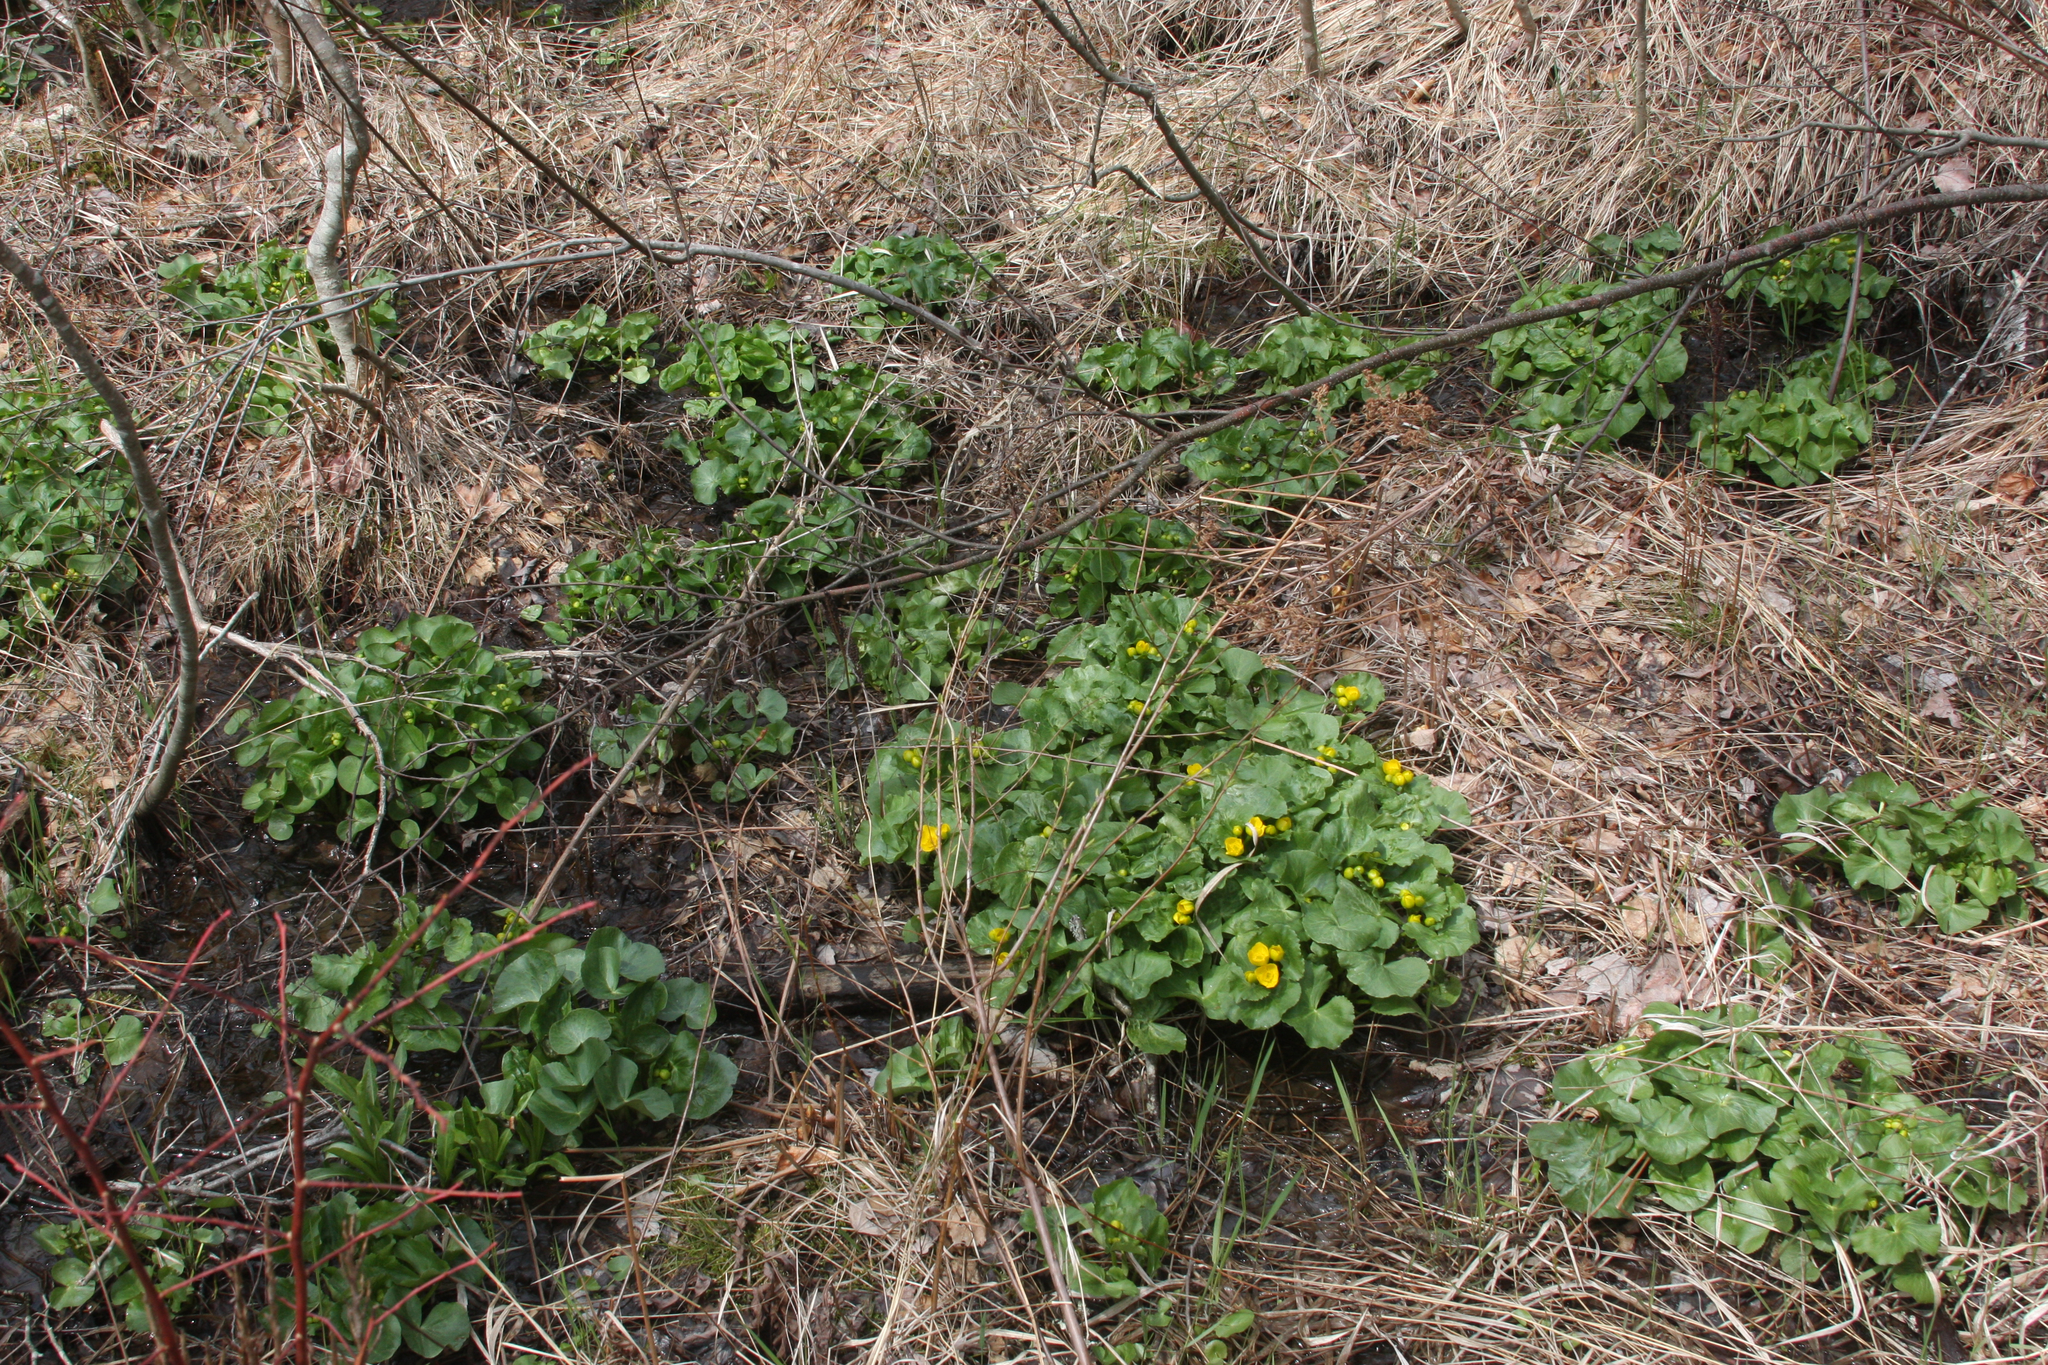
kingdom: Plantae
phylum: Tracheophyta
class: Magnoliopsida
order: Ranunculales
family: Ranunculaceae
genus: Caltha
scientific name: Caltha palustris
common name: Marsh marigold
